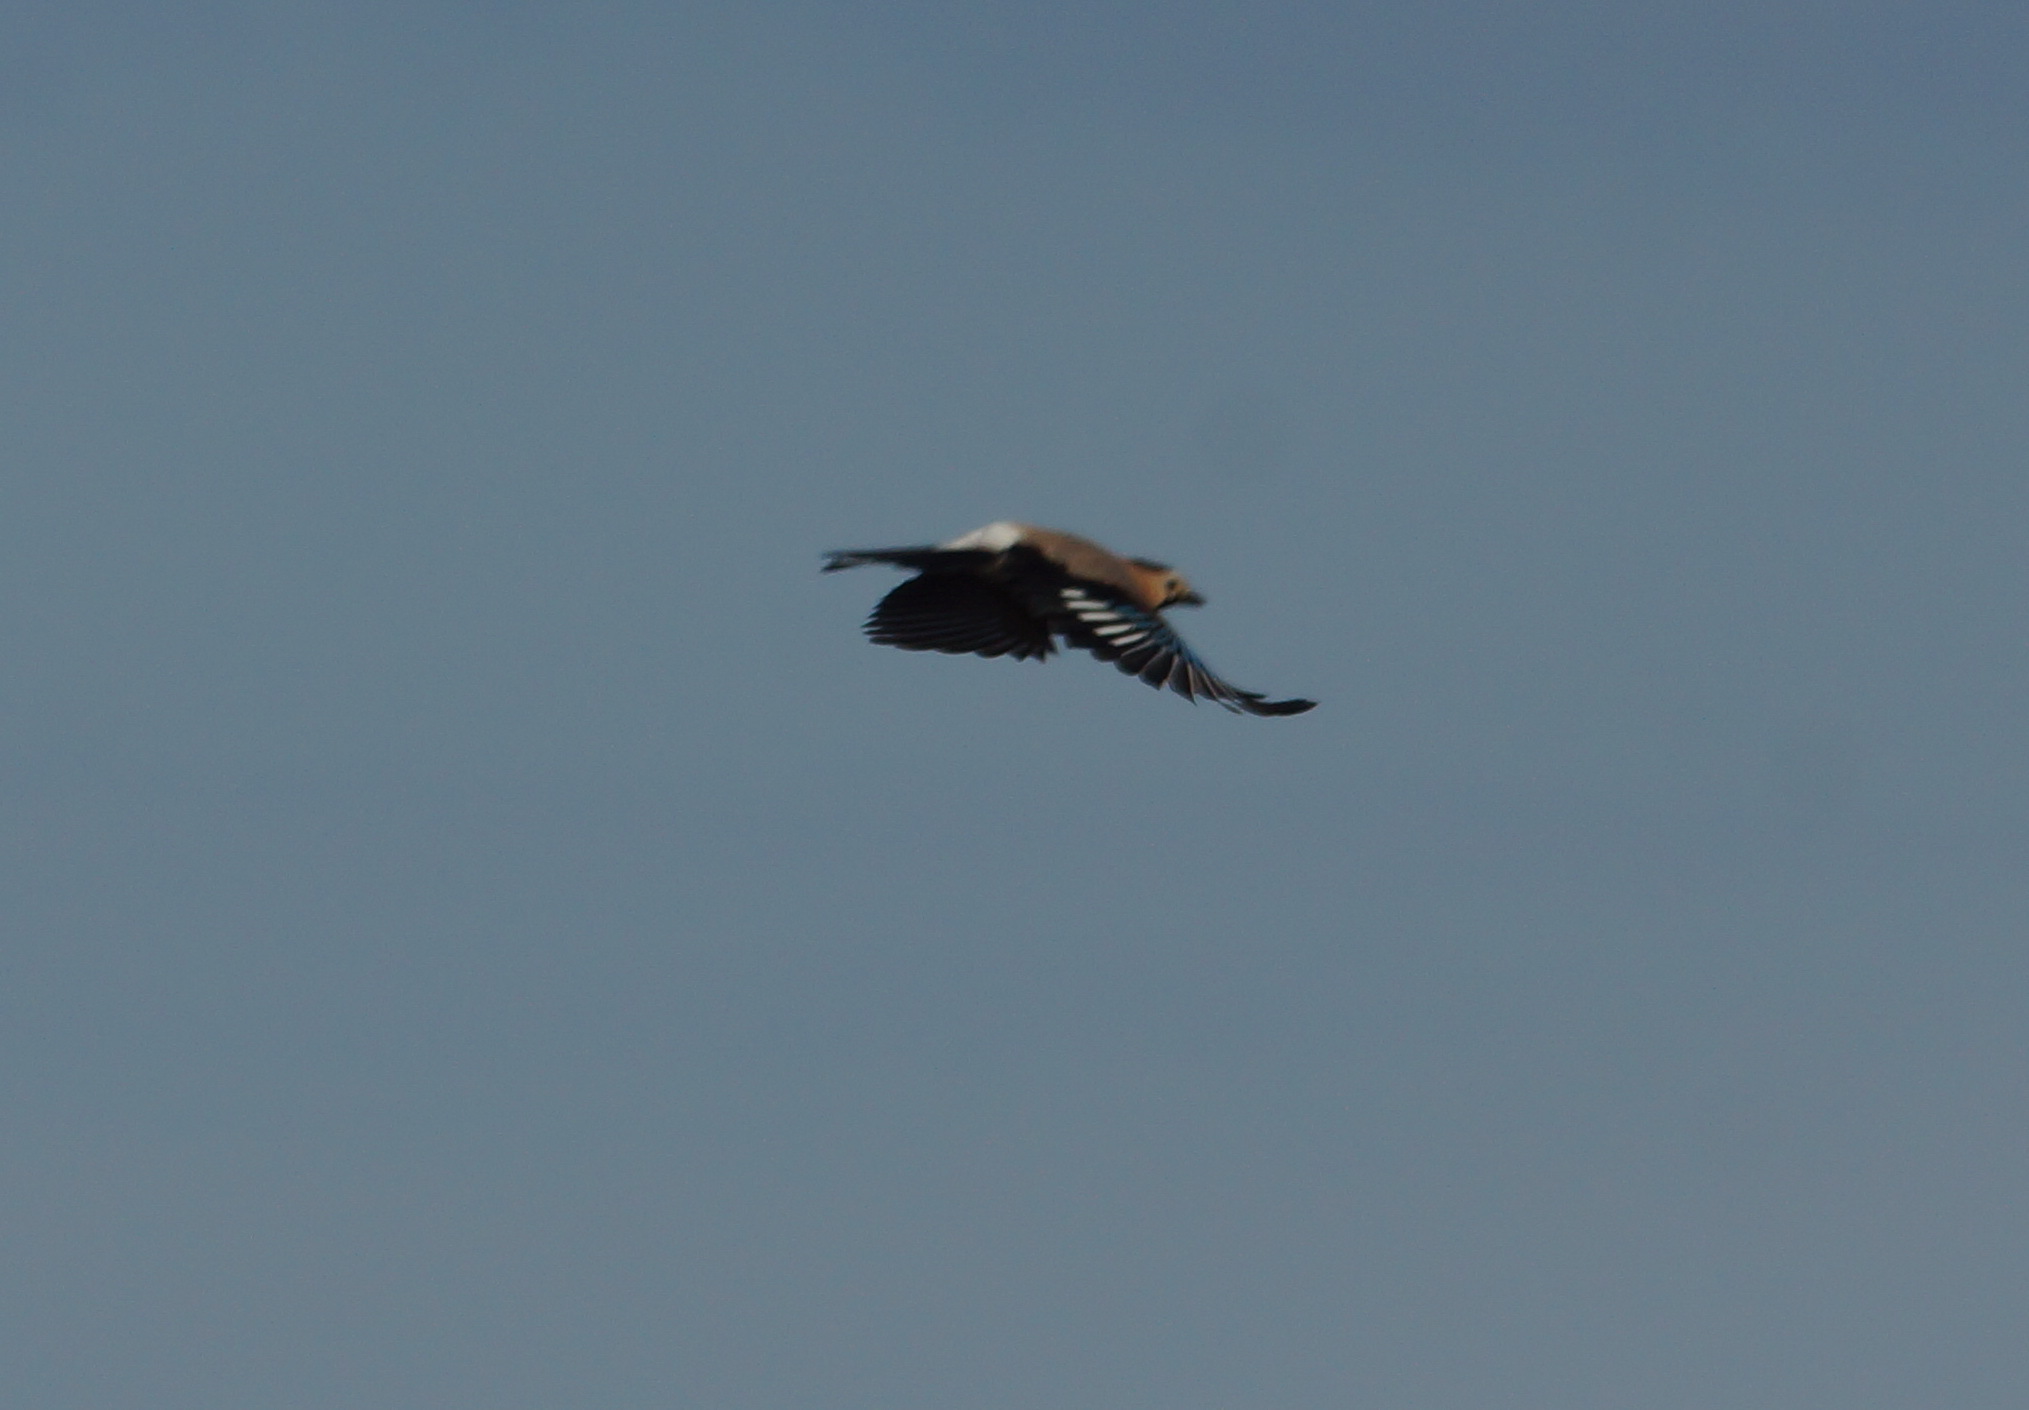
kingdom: Animalia
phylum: Chordata
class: Aves
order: Passeriformes
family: Corvidae
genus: Garrulus
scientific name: Garrulus glandarius
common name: Eurasian jay
